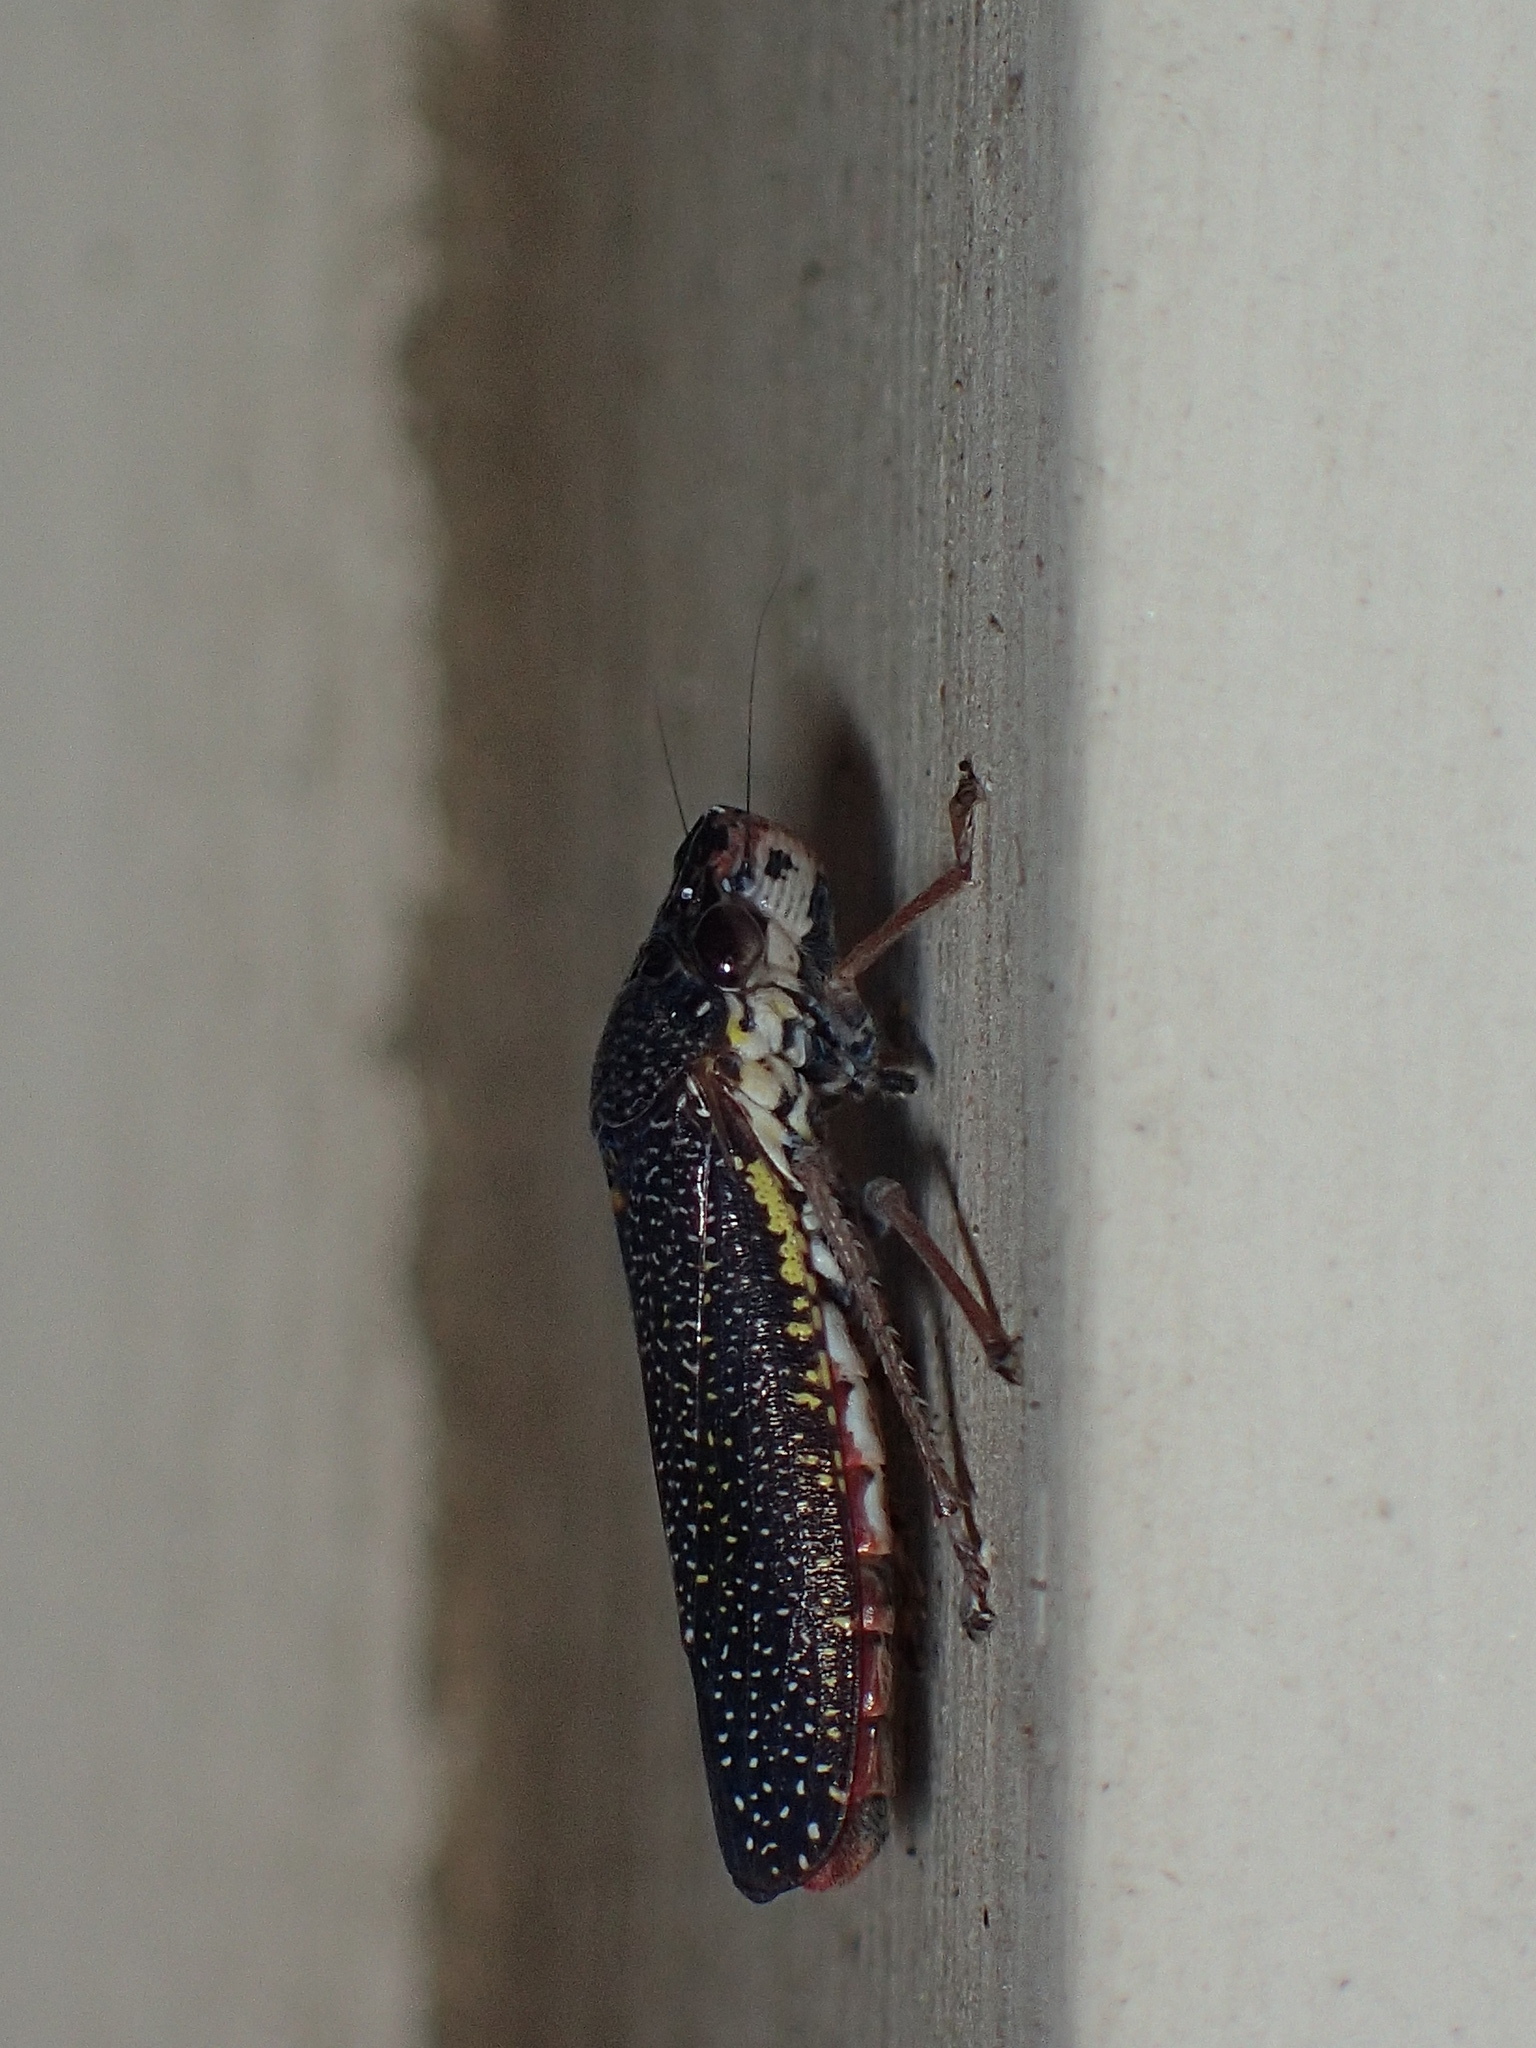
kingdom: Animalia
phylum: Arthropoda
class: Insecta
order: Hemiptera
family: Cicadellidae
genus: Paraulacizes
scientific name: Paraulacizes irrorata
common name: Speckled sharpshooter
